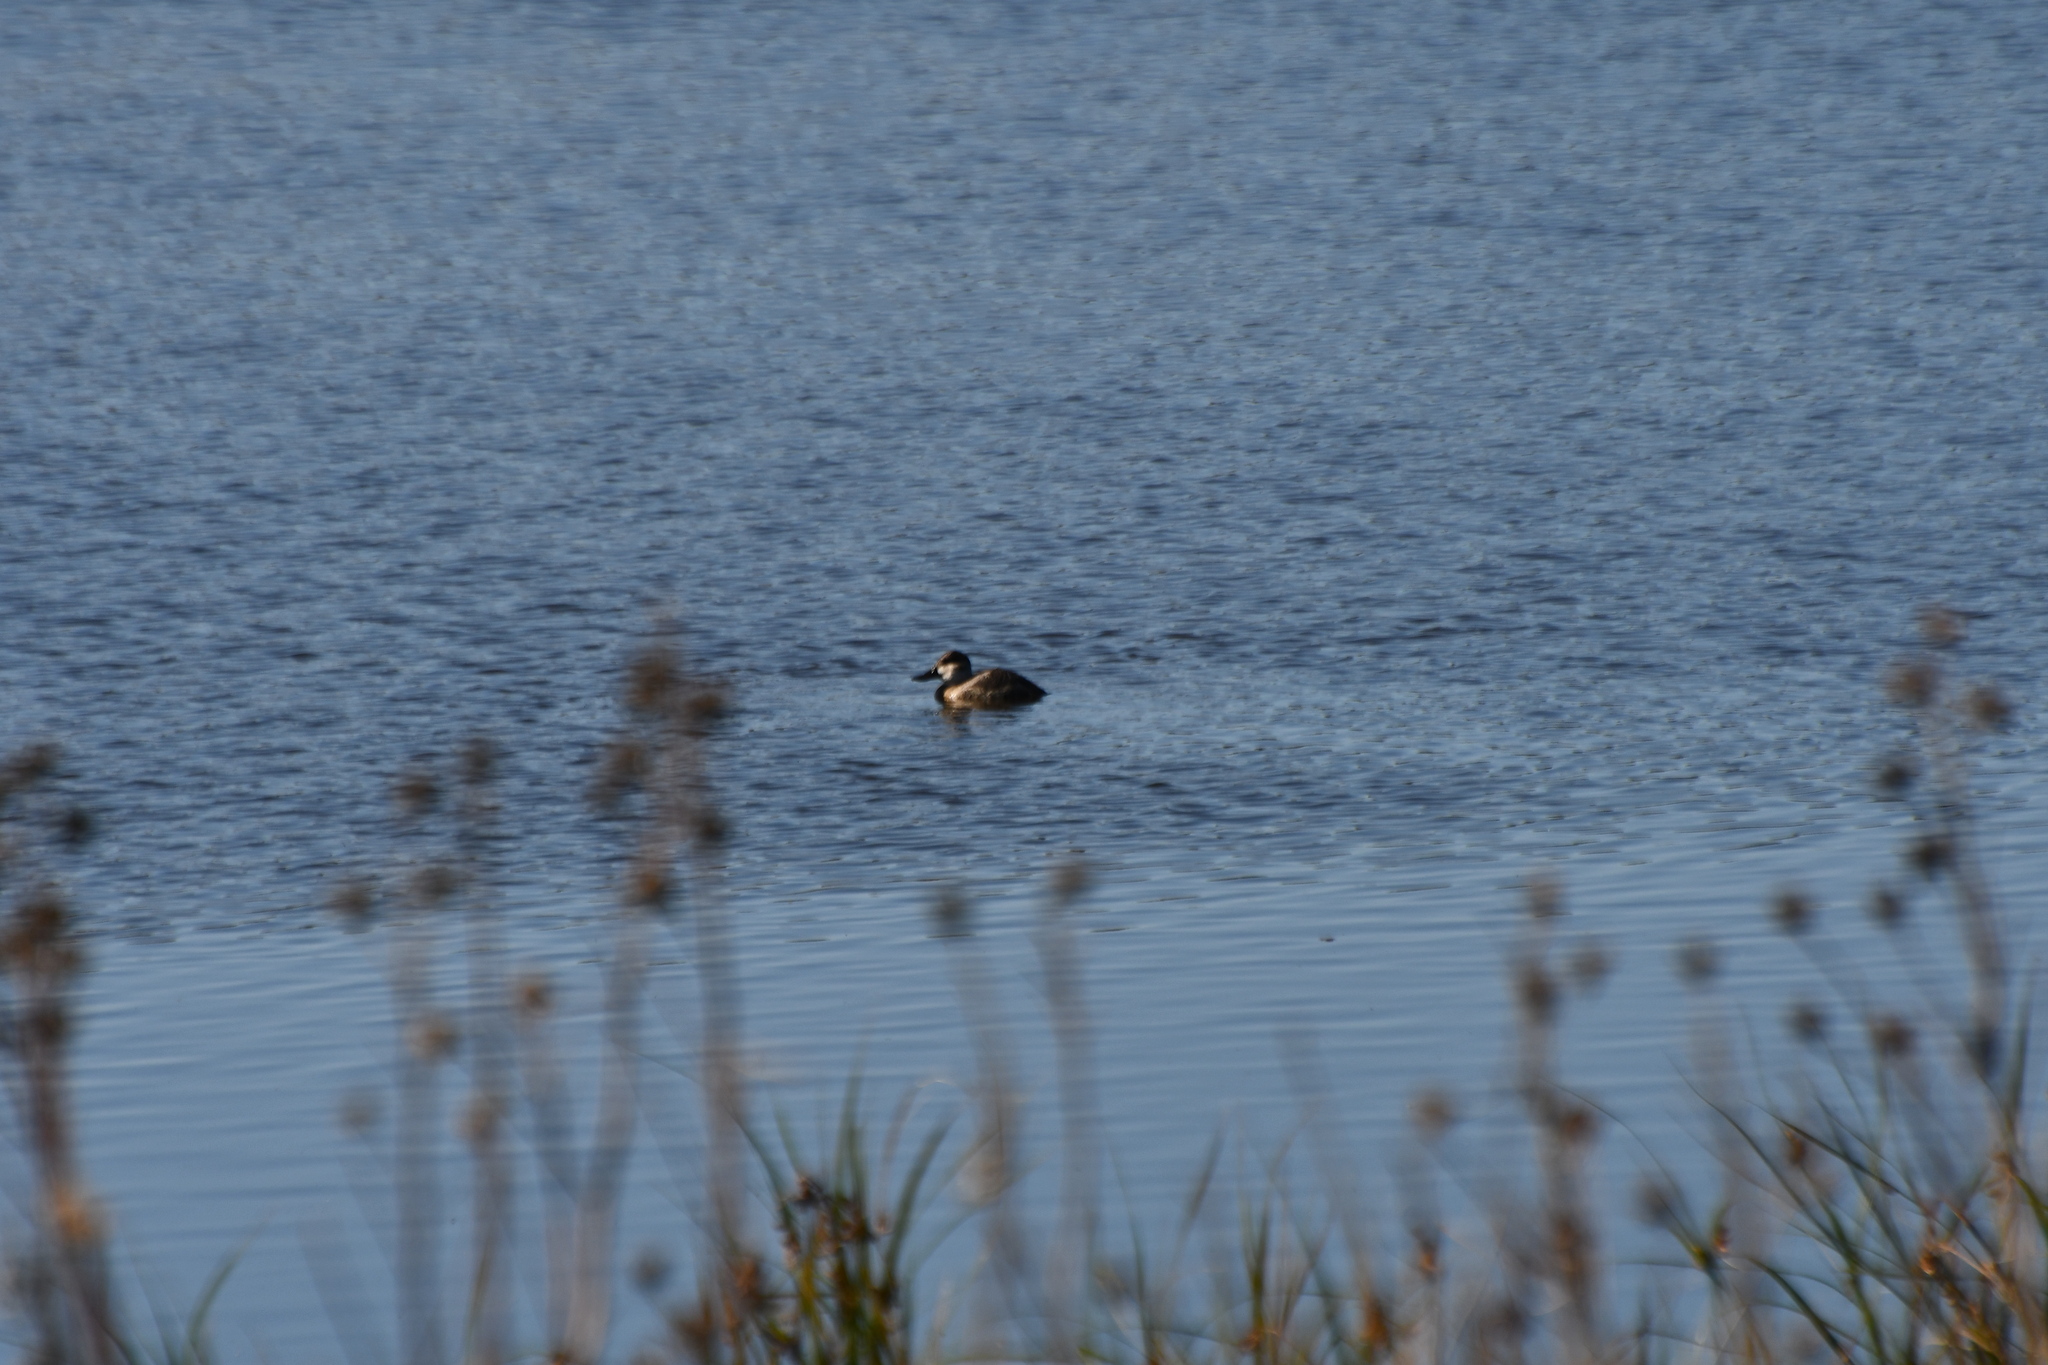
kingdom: Animalia
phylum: Chordata
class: Aves
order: Anseriformes
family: Anatidae
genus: Oxyura
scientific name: Oxyura jamaicensis
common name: Ruddy duck
